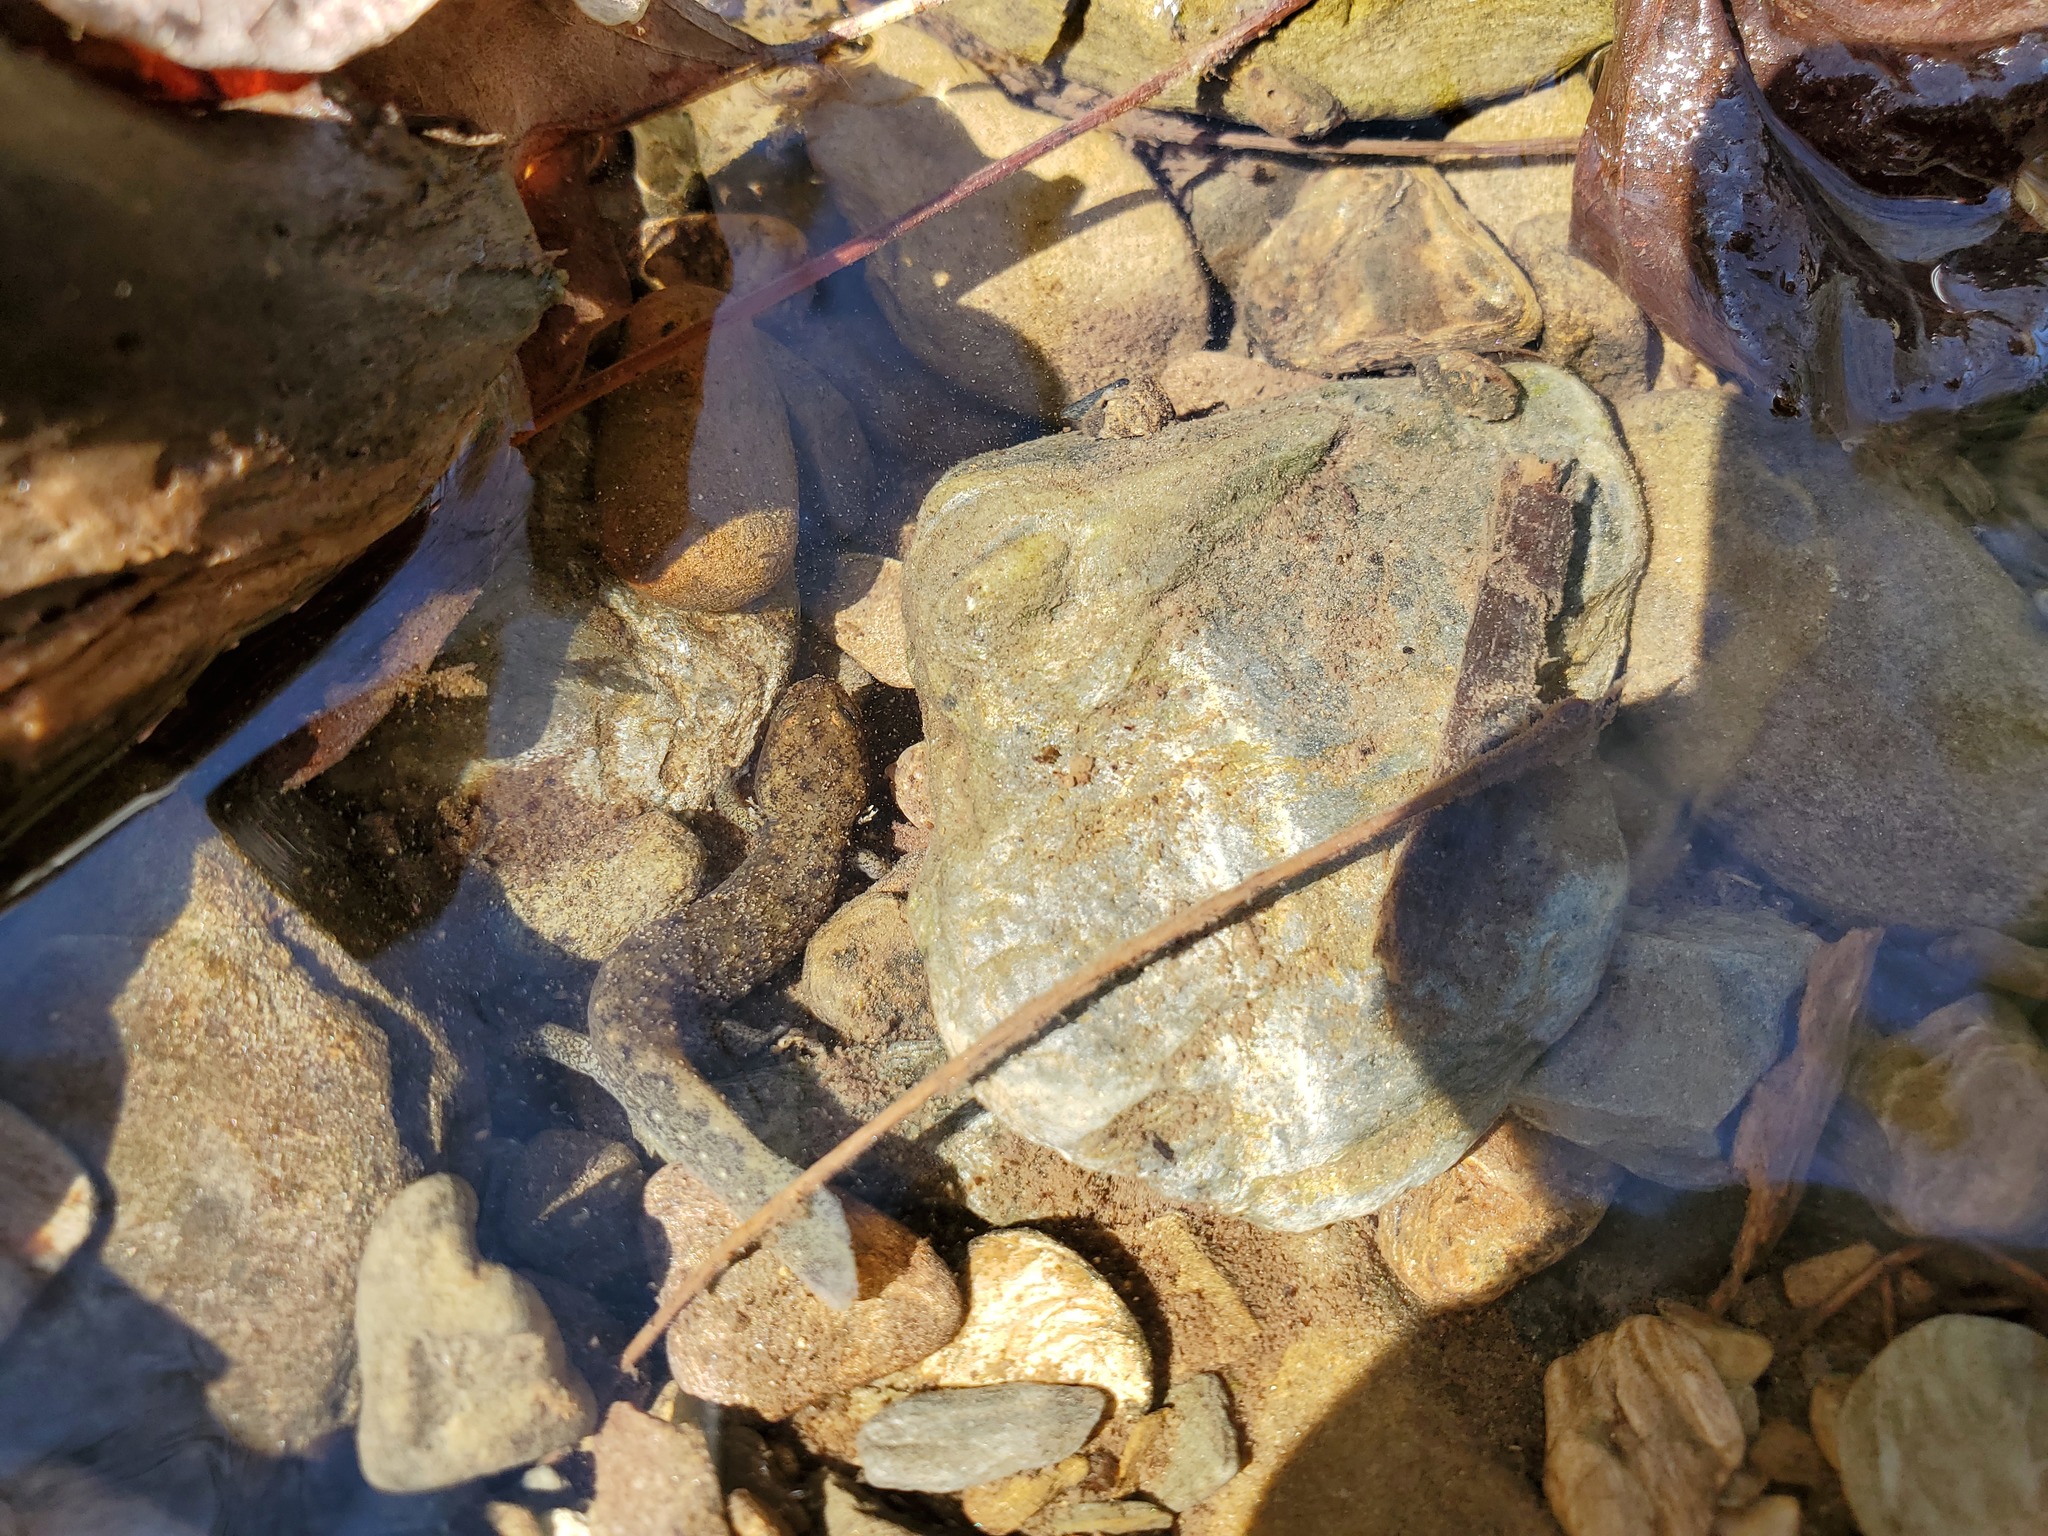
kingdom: Animalia
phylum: Chordata
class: Amphibia
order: Caudata
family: Plethodontidae
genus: Desmognathus
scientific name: Desmognathus
